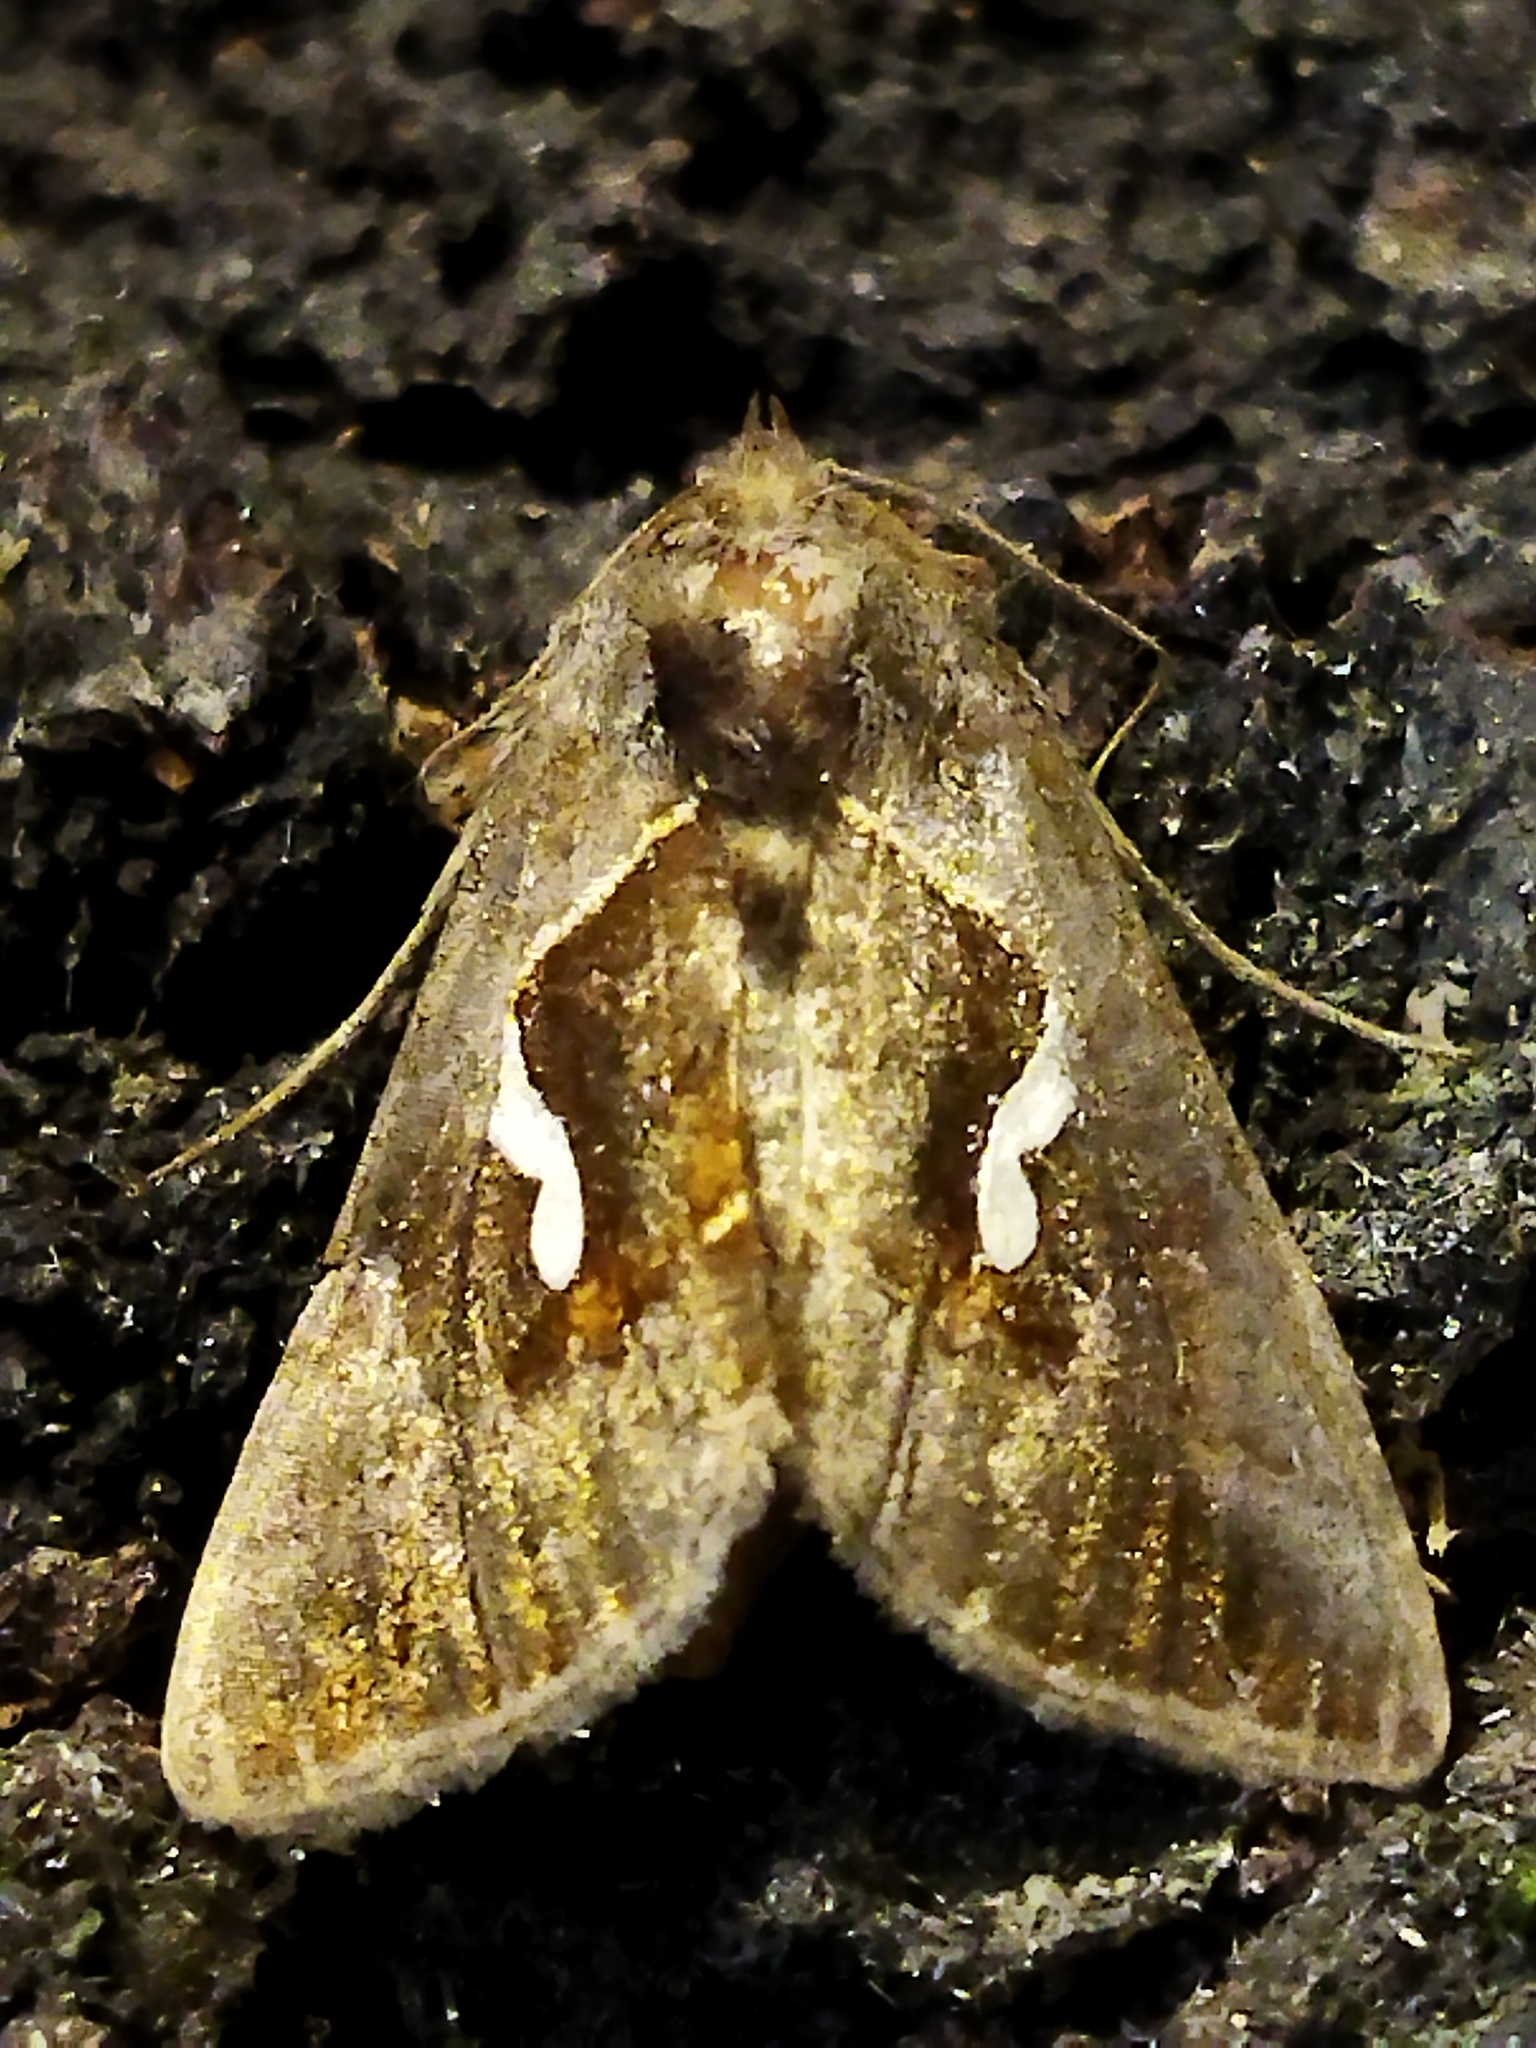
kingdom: Animalia
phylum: Arthropoda
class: Insecta
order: Lepidoptera
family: Noctuidae
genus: Macdunnoughia
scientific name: Macdunnoughia confusa
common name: Dewick's plusia
